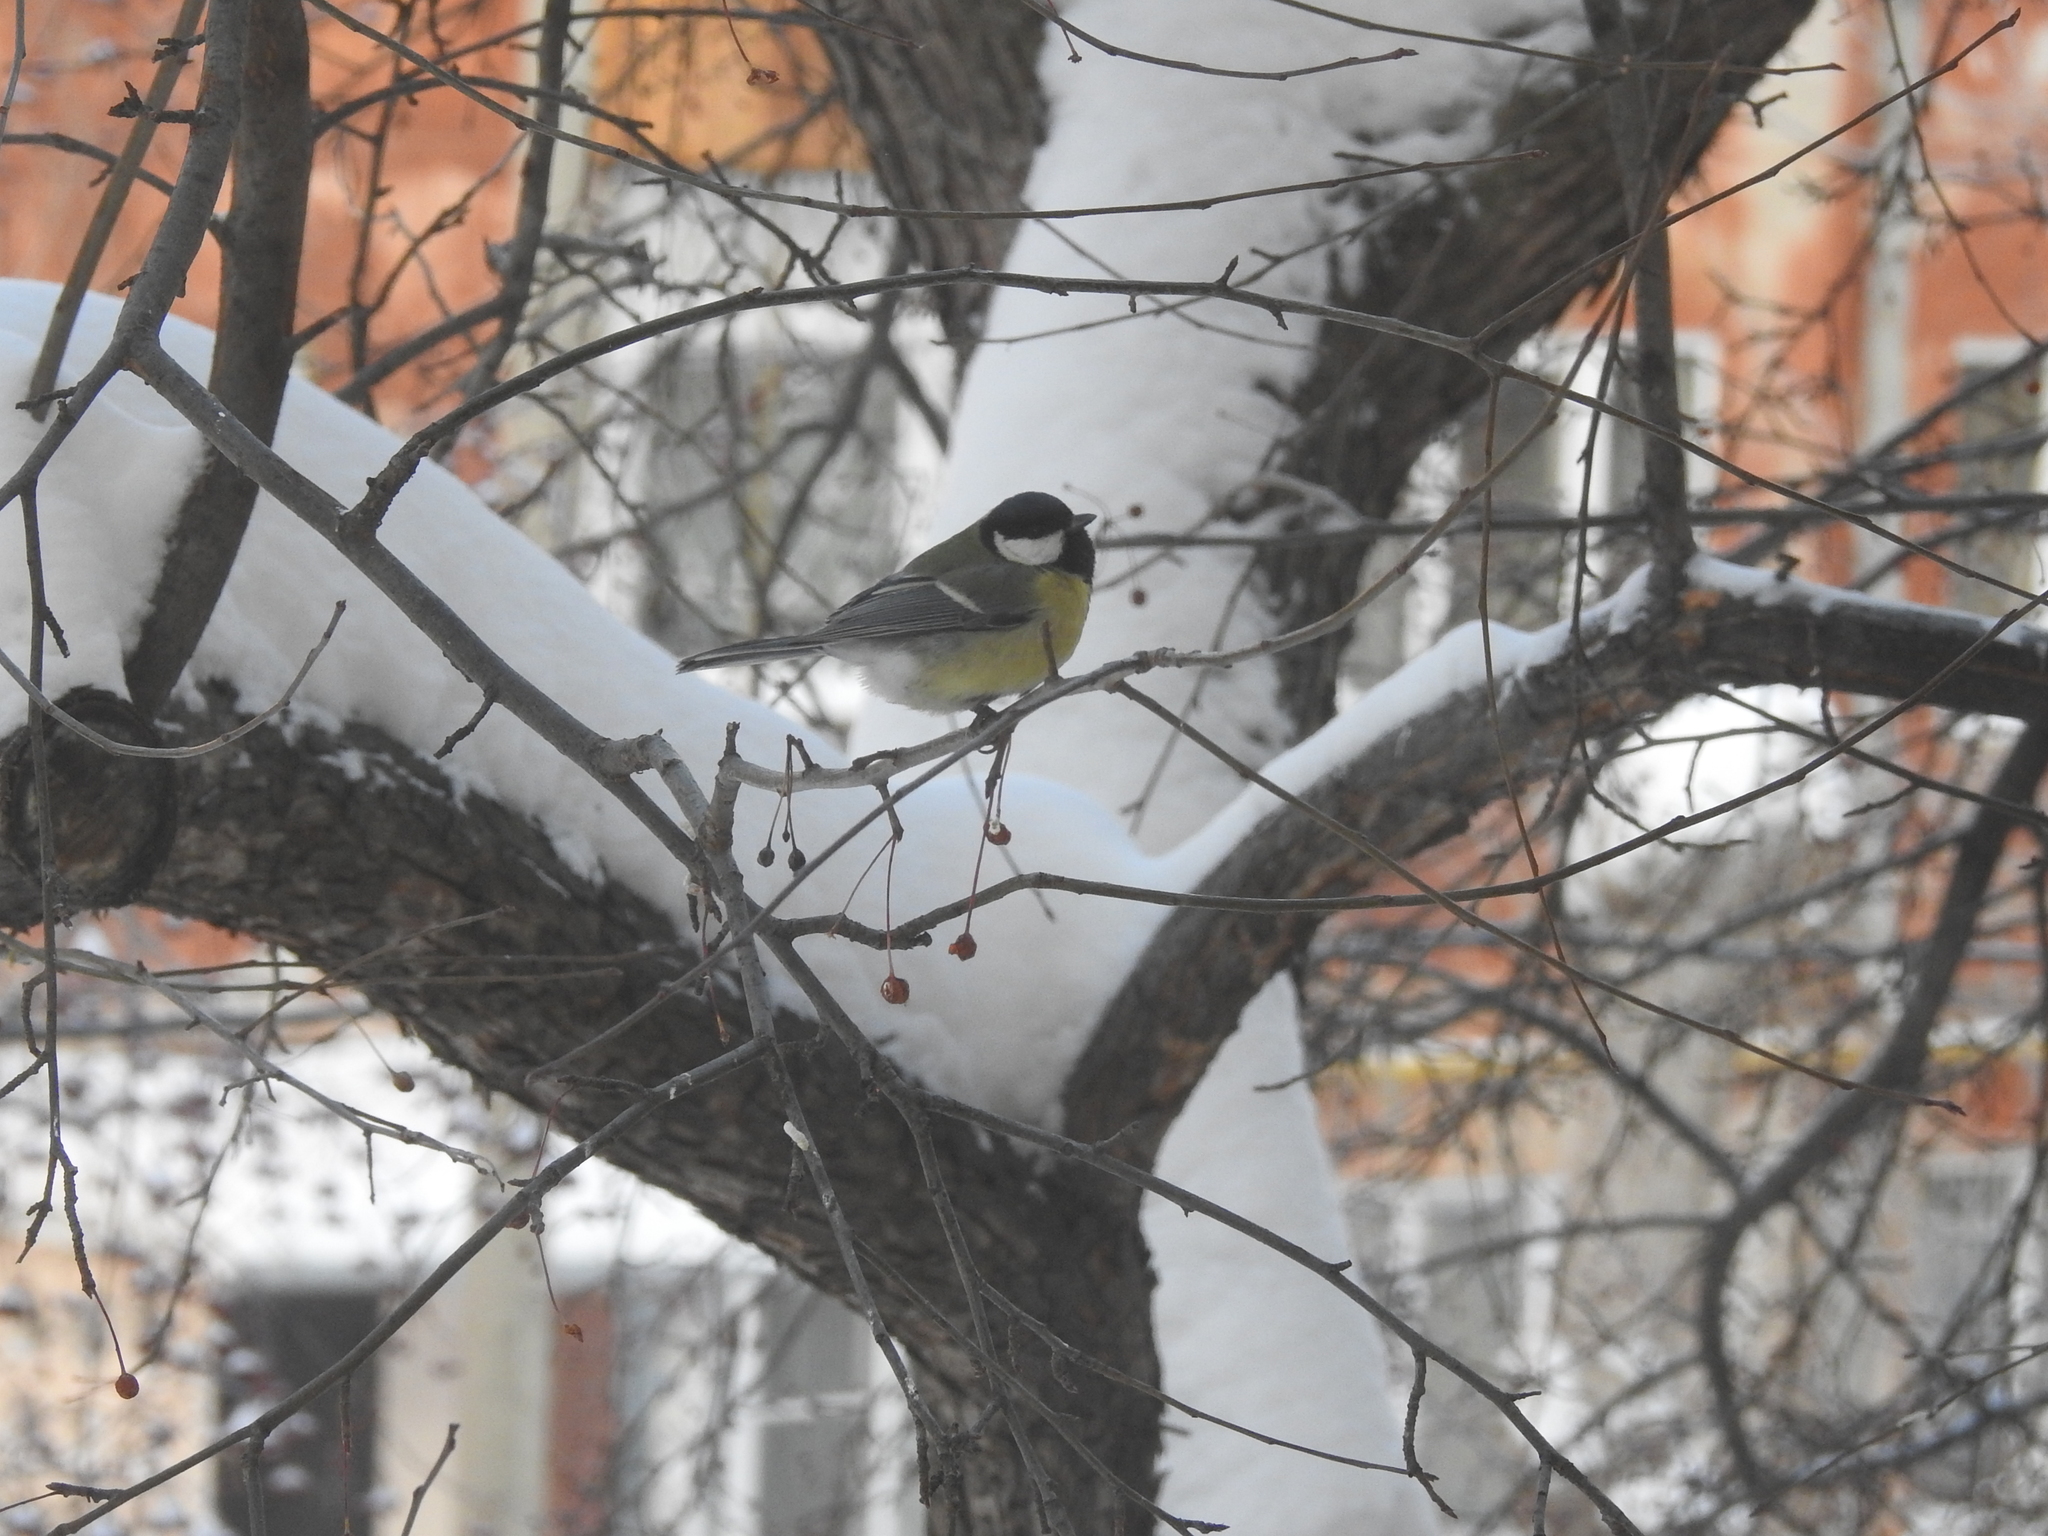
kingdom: Animalia
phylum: Chordata
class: Aves
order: Passeriformes
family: Paridae
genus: Parus
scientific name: Parus major
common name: Great tit
